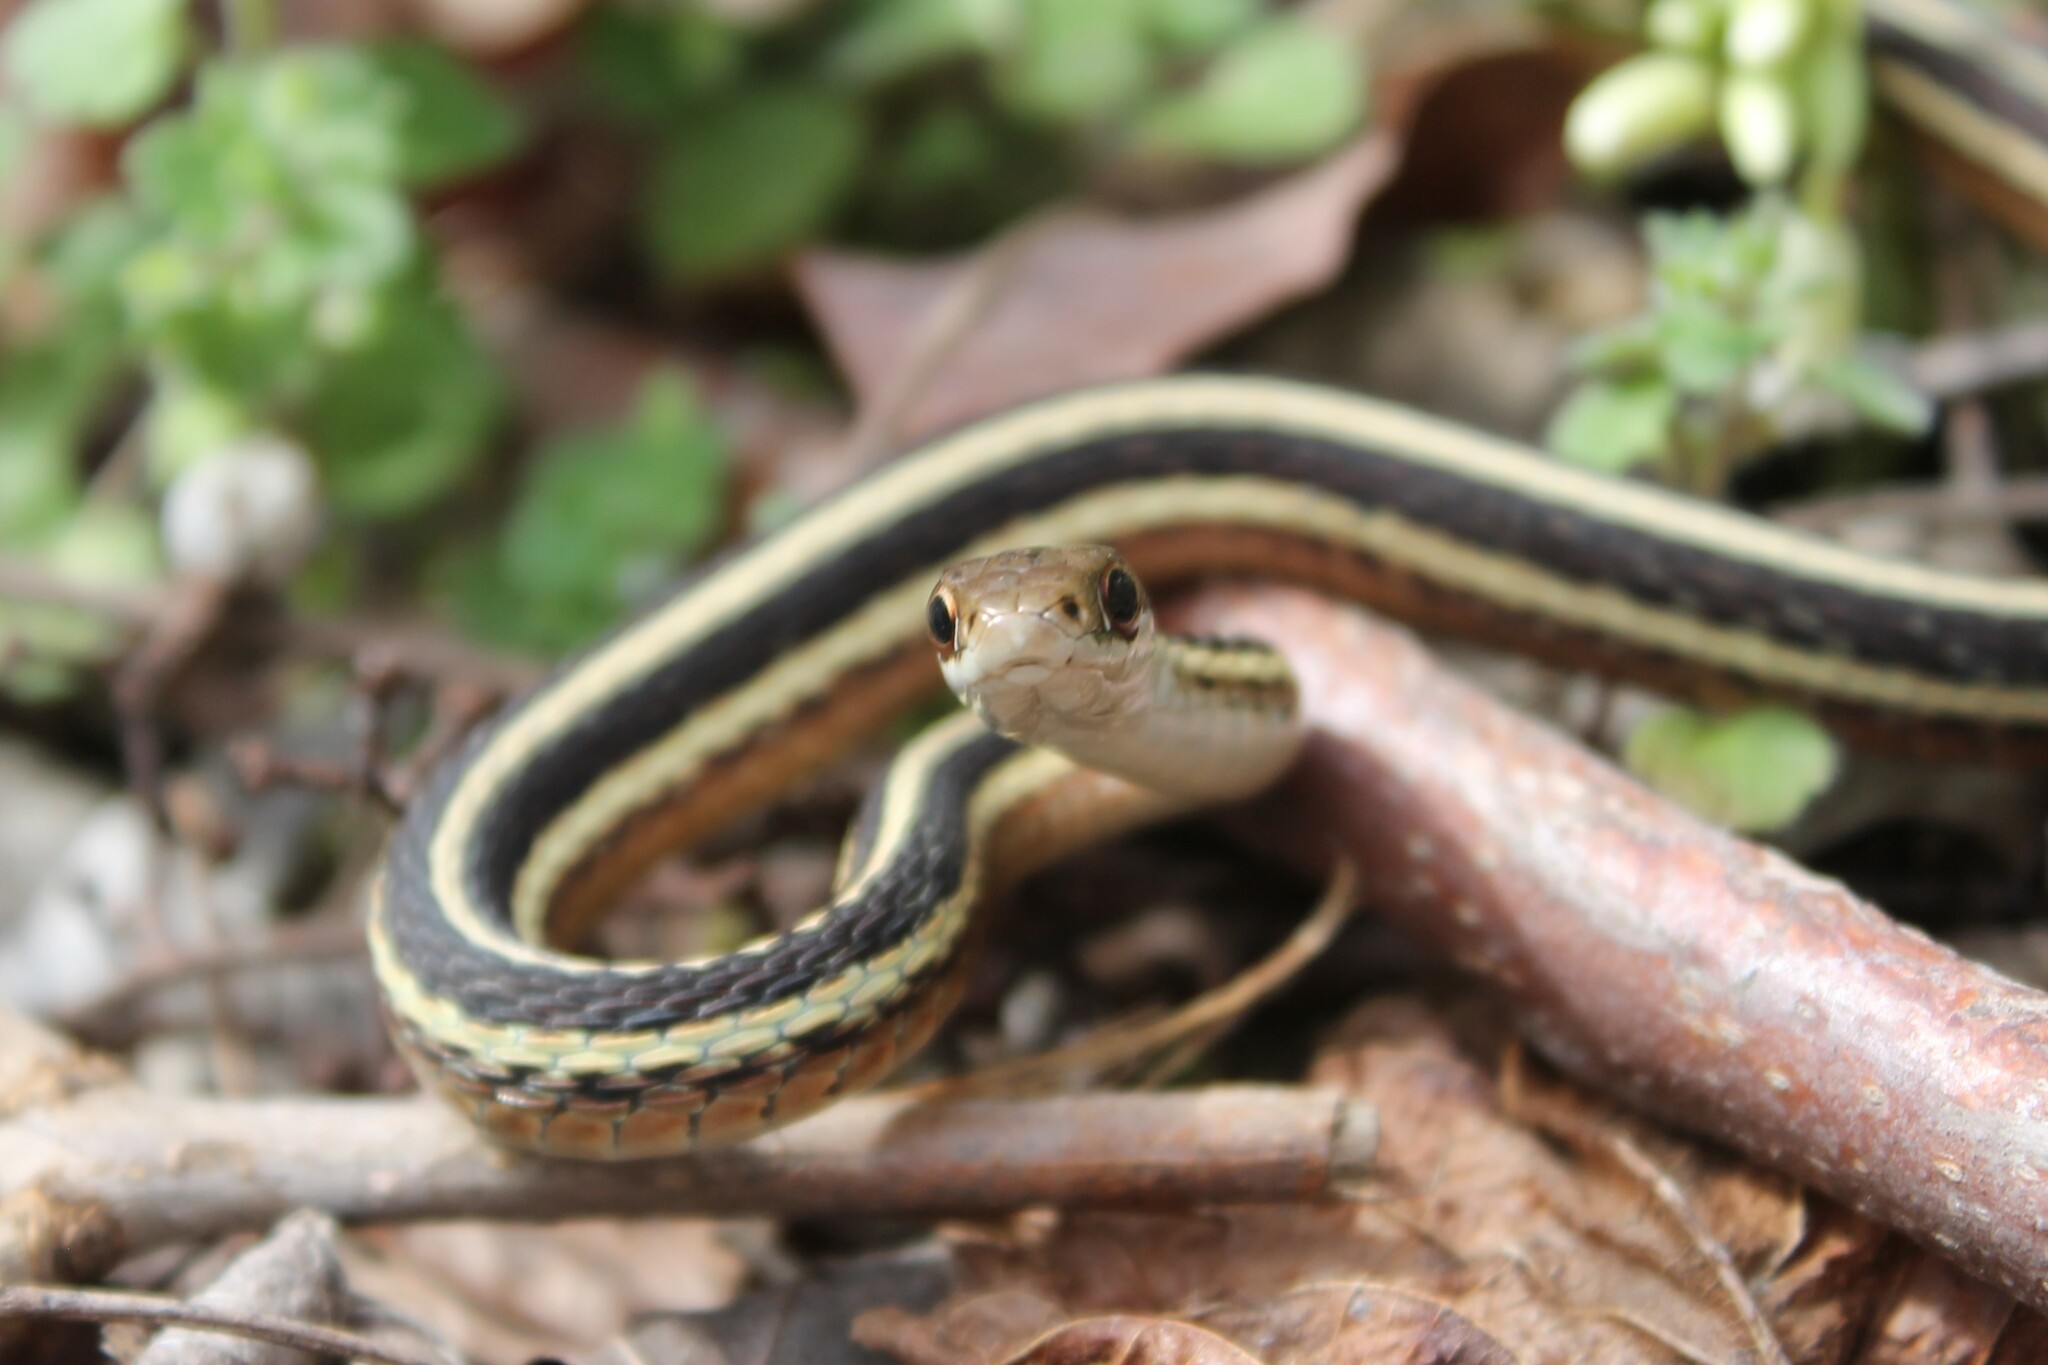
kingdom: Animalia
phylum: Chordata
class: Squamata
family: Colubridae
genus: Thamnophis
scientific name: Thamnophis saurita
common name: Eastern ribbonsnake
